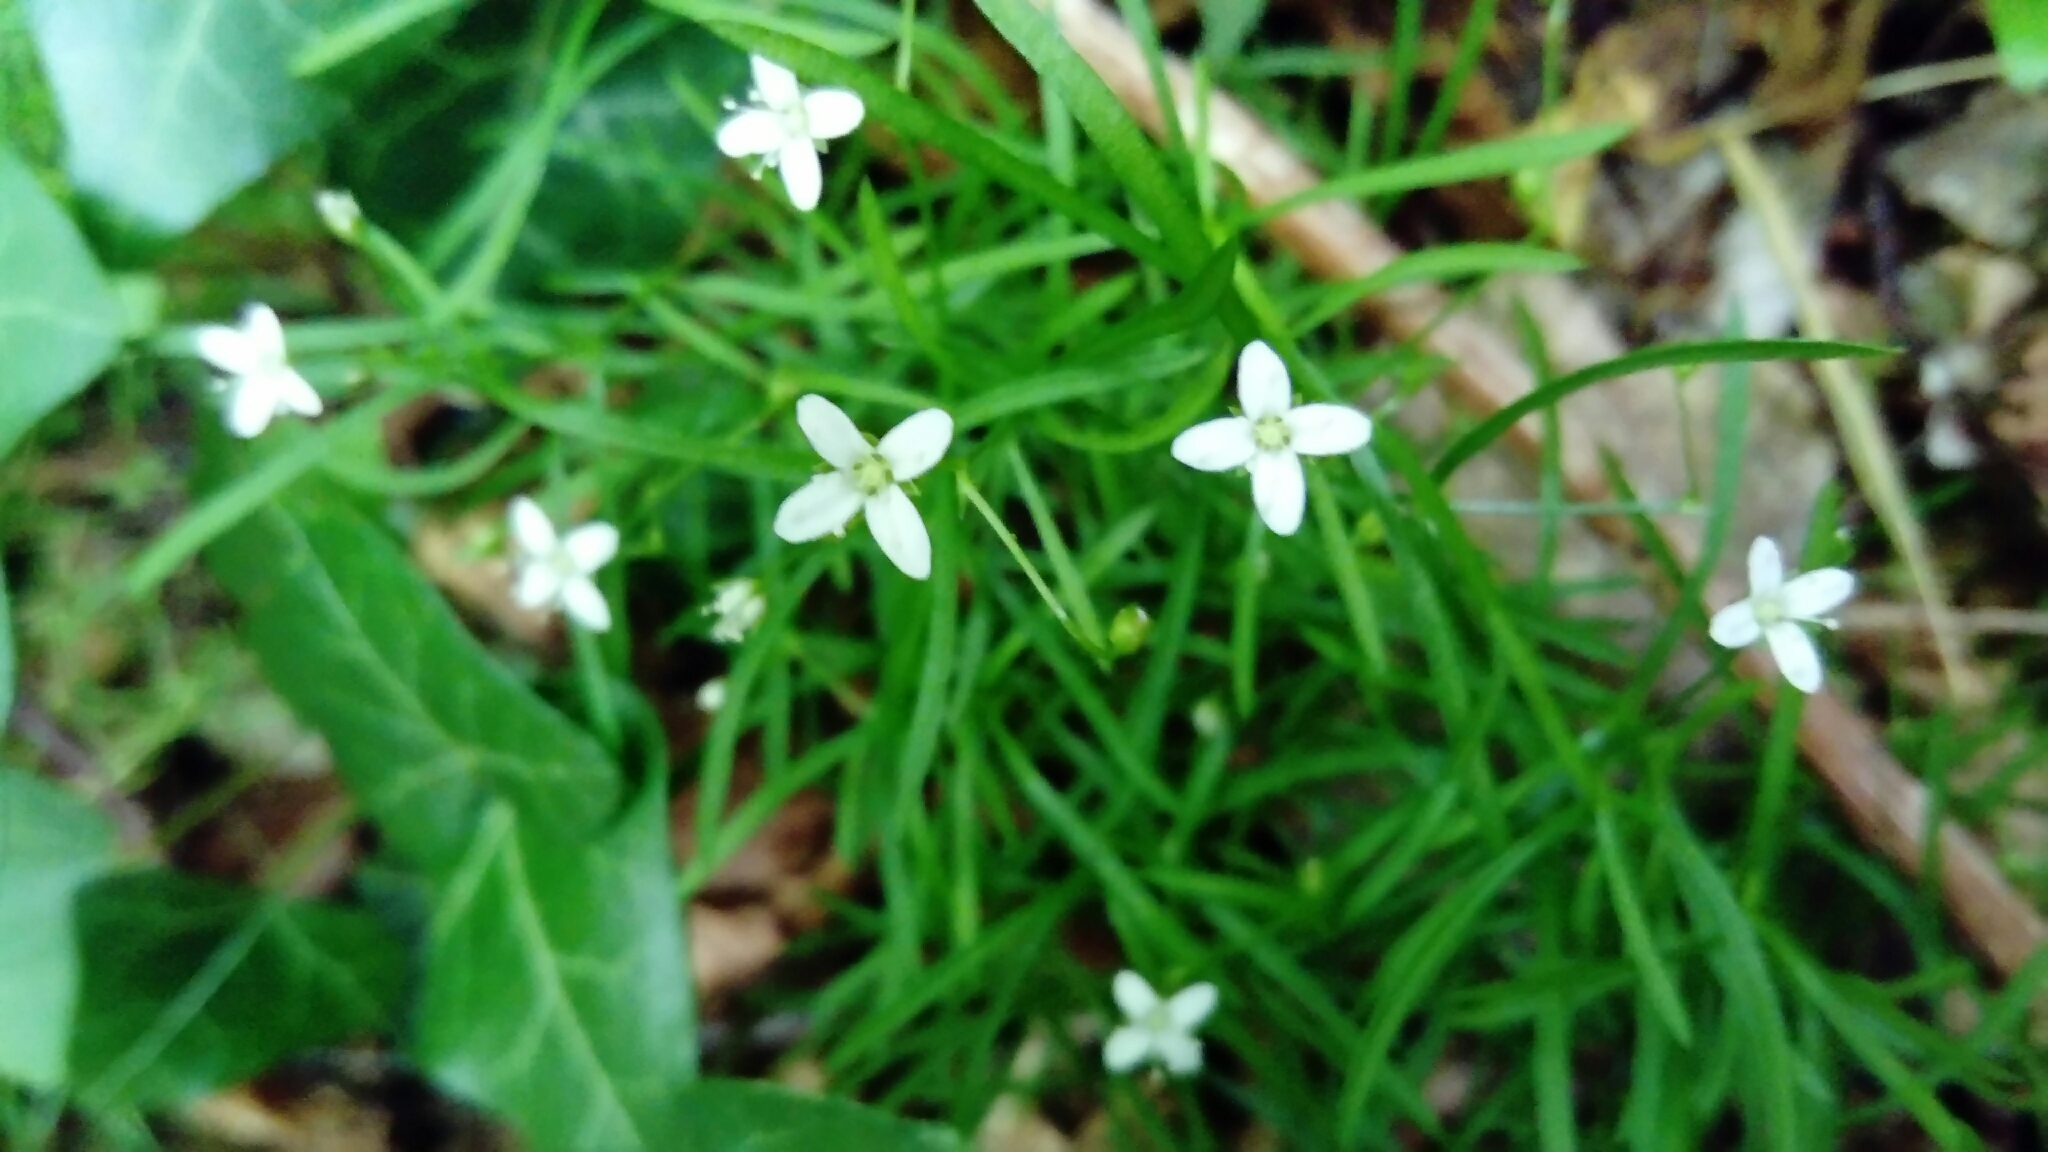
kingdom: Plantae
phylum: Tracheophyta
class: Magnoliopsida
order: Caryophyllales
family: Caryophyllaceae
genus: Moehringia
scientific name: Moehringia muscosa
